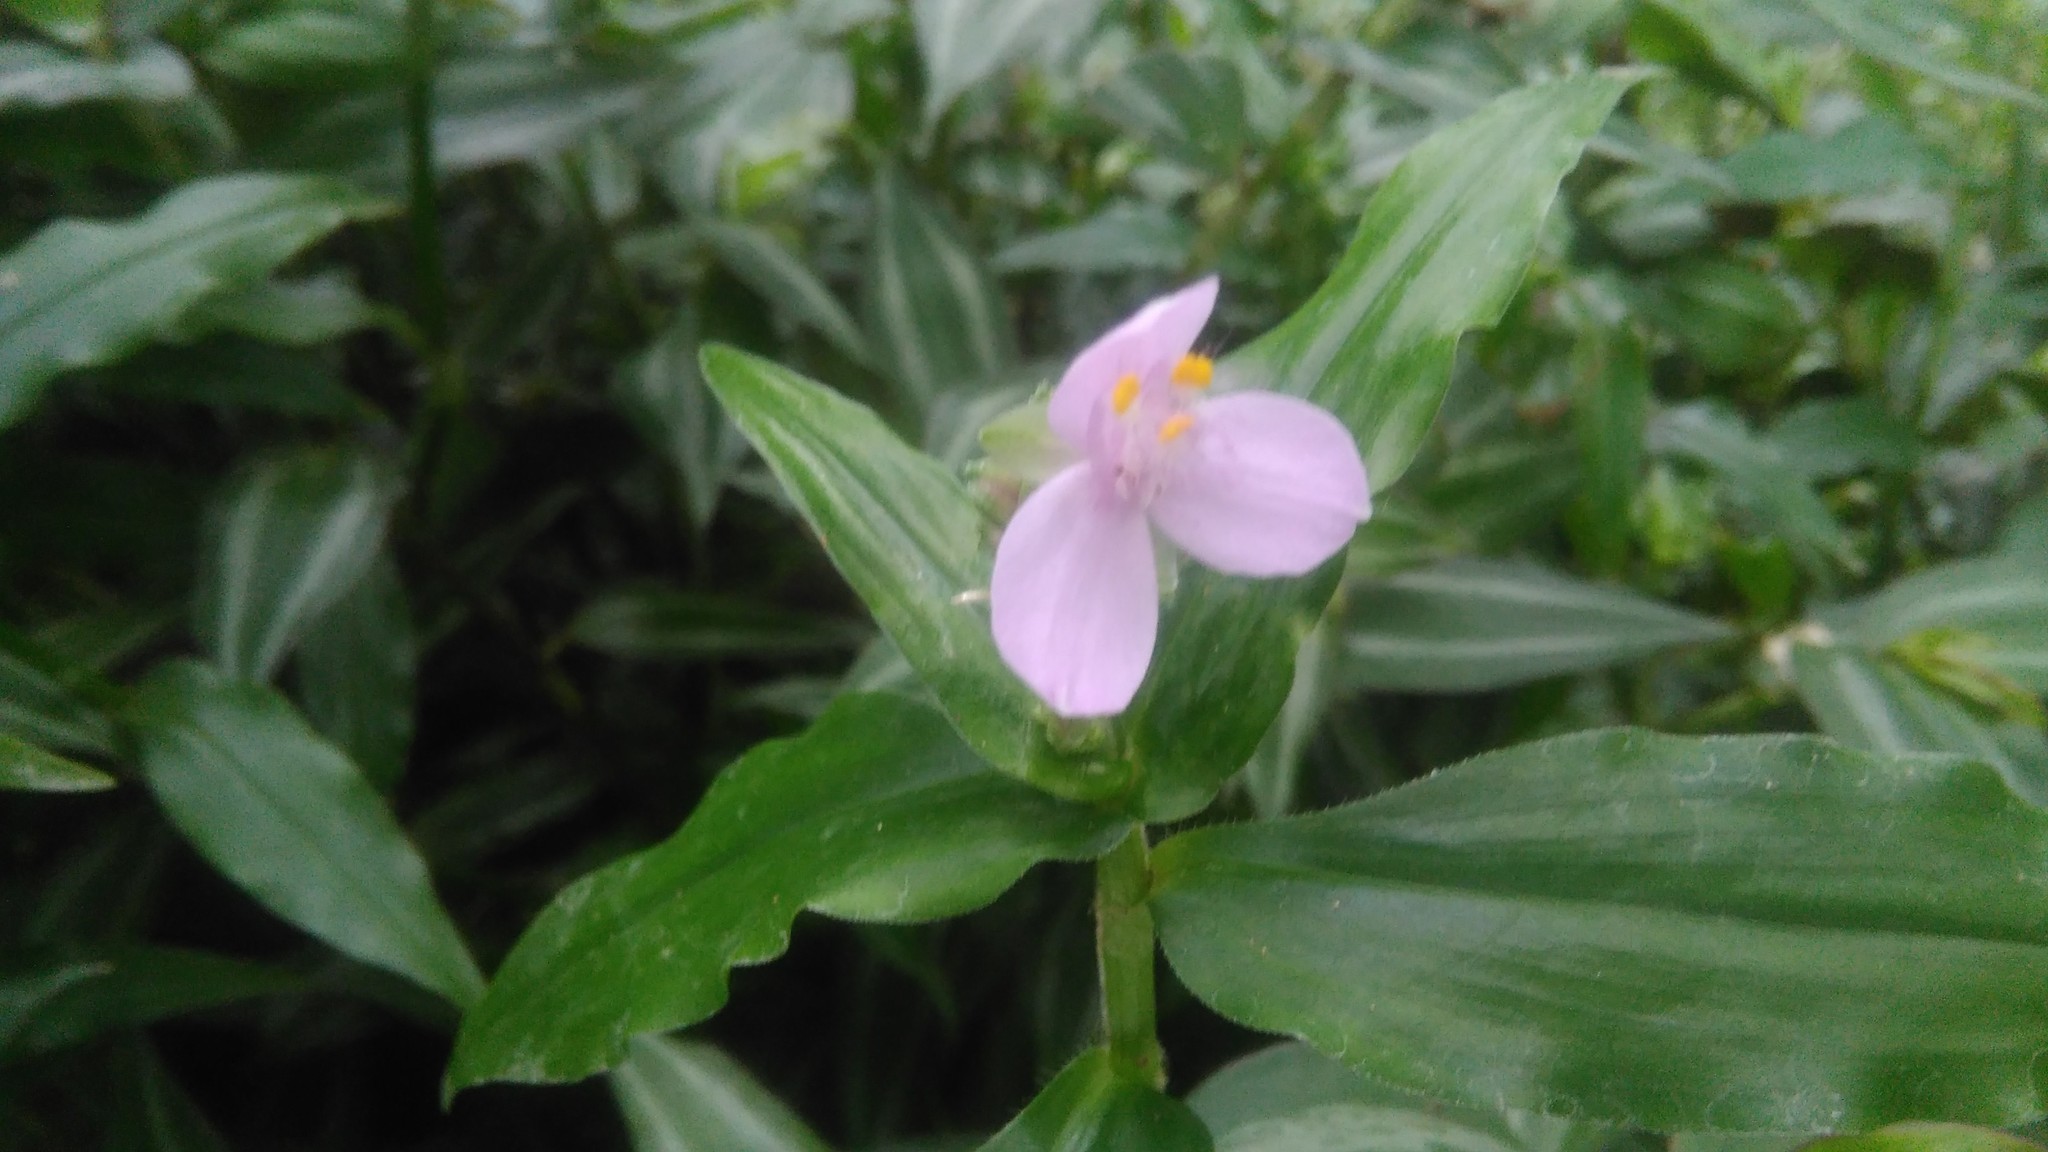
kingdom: Plantae
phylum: Tracheophyta
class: Liliopsida
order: Commelinales
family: Commelinaceae
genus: Callisia
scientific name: Callisia diuretica
